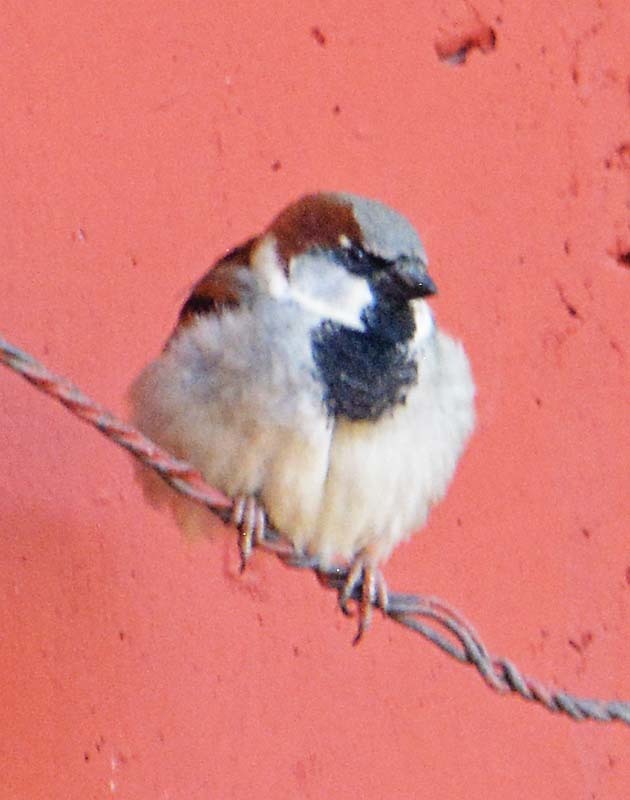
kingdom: Animalia
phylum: Chordata
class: Aves
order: Passeriformes
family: Passeridae
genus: Passer
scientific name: Passer domesticus
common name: House sparrow
